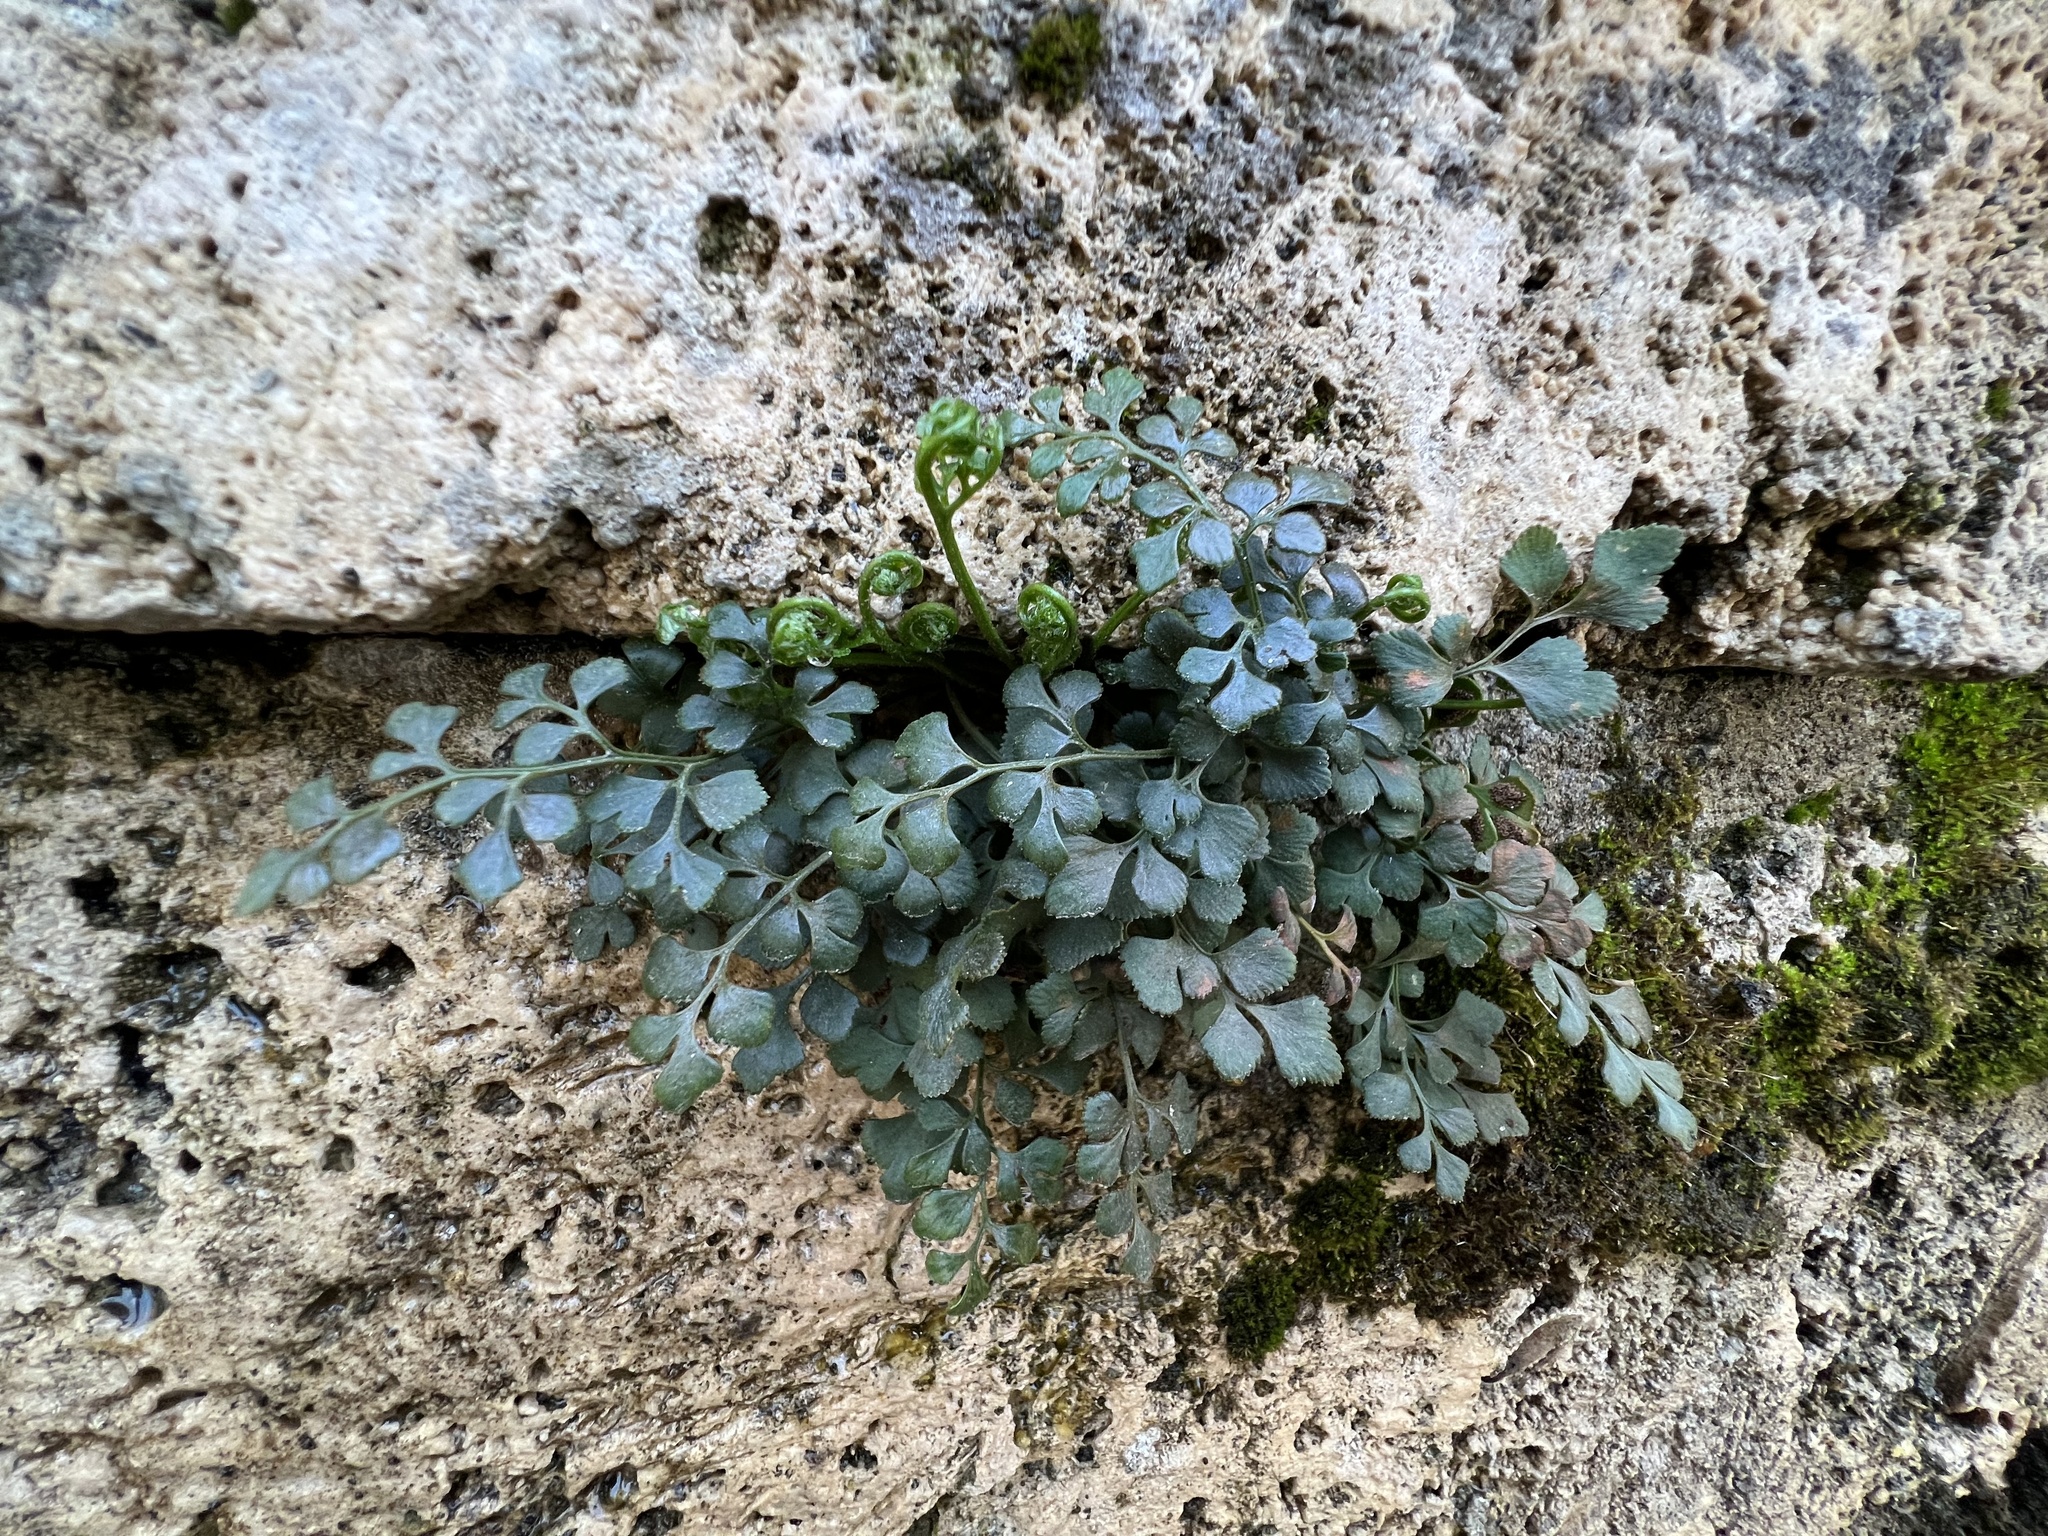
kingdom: Plantae
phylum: Tracheophyta
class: Polypodiopsida
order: Polypodiales
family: Aspleniaceae
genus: Asplenium
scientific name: Asplenium ruta-muraria
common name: Wall-rue
